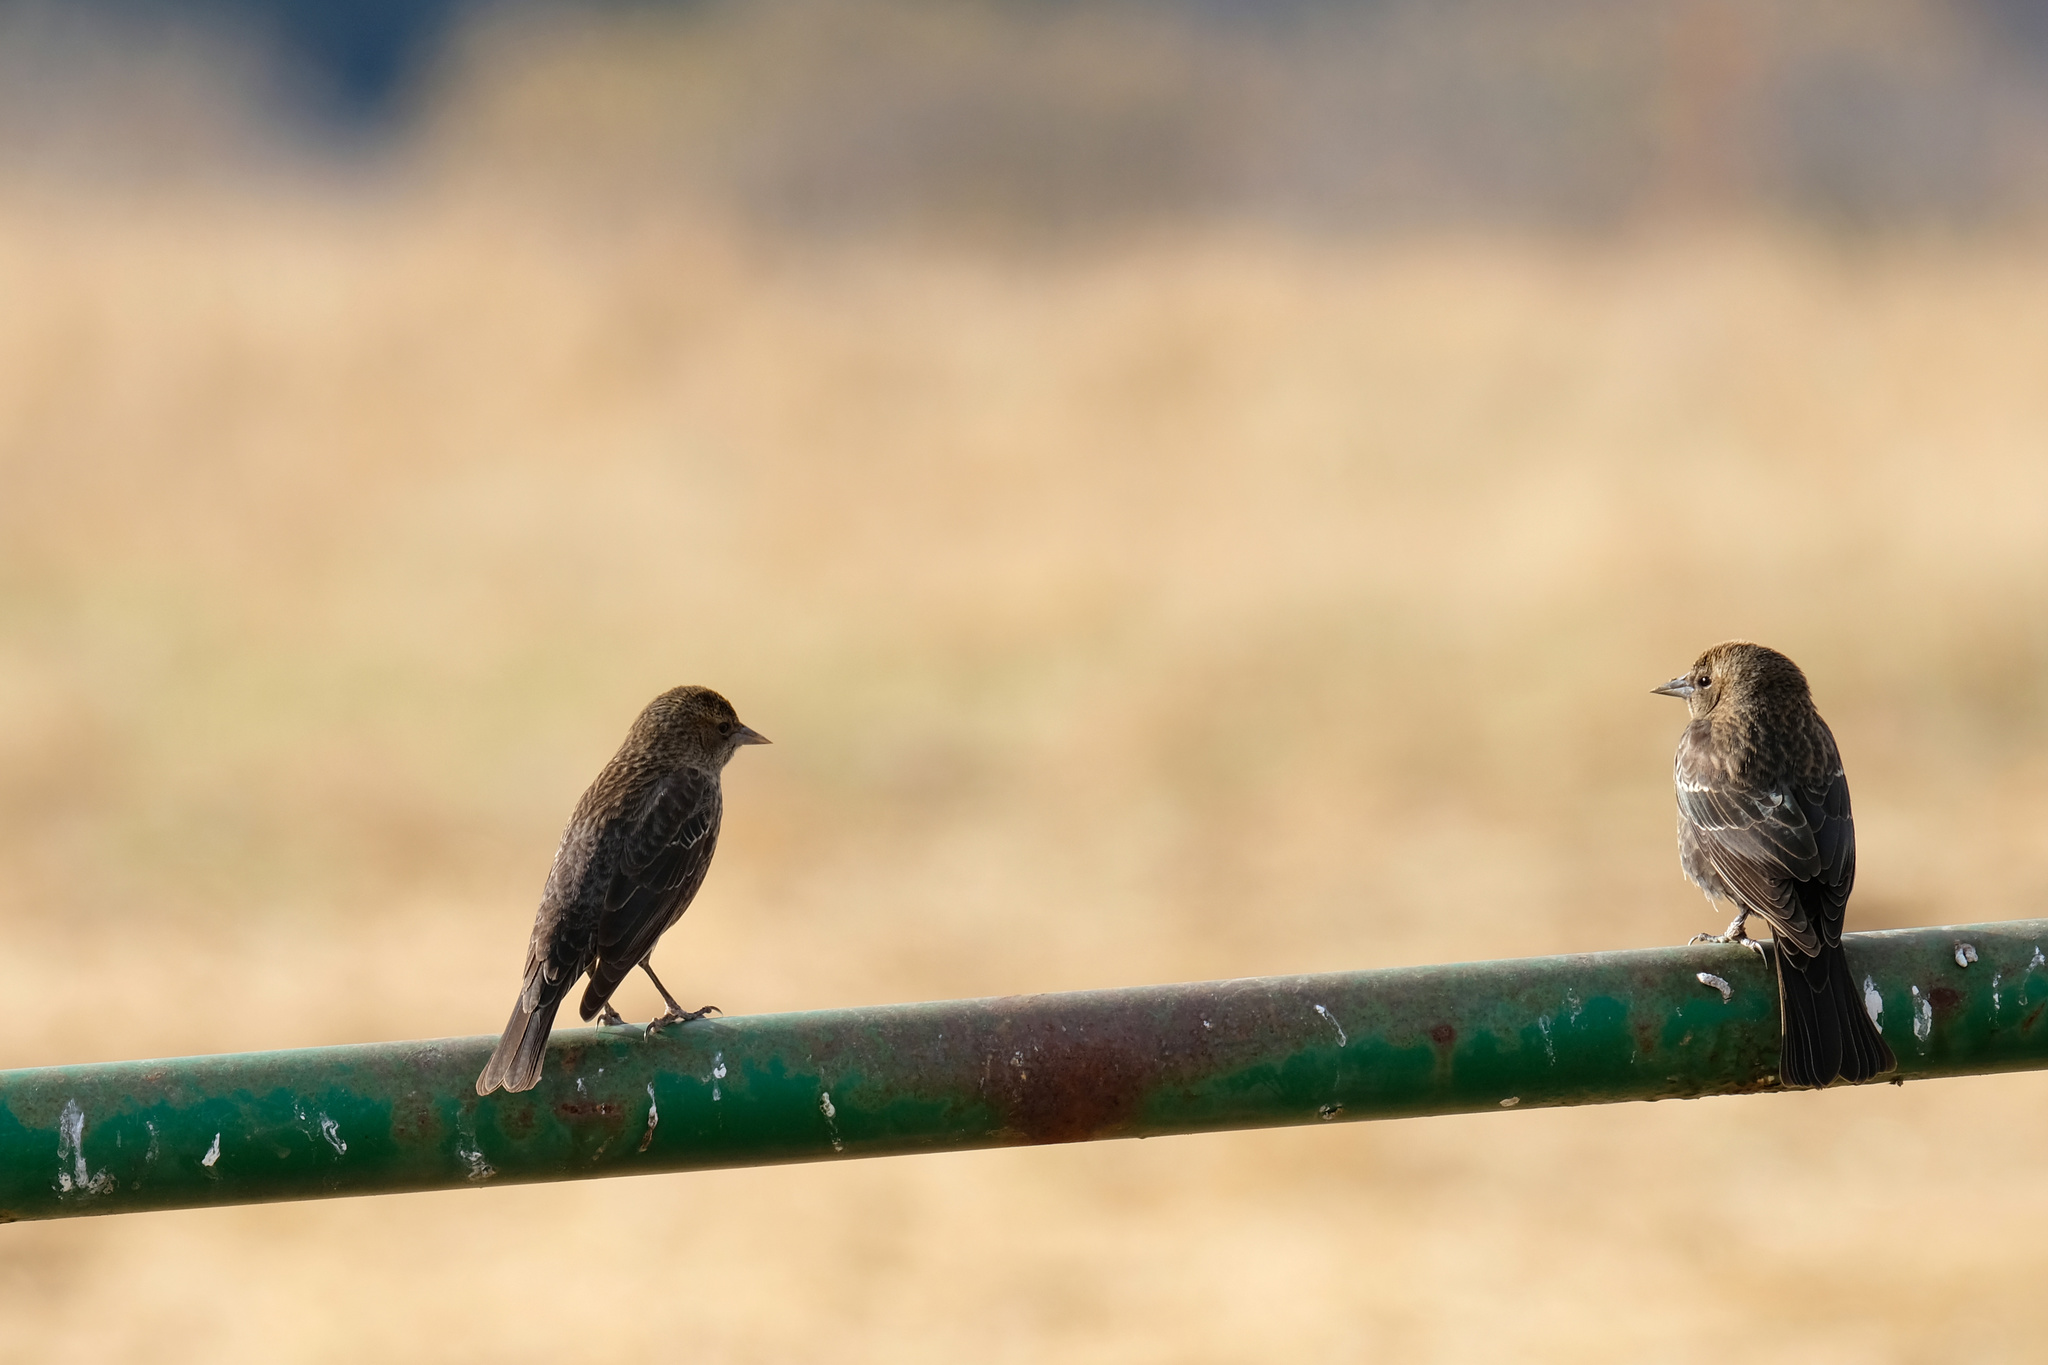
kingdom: Animalia
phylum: Chordata
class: Aves
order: Passeriformes
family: Icteridae
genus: Agelaius
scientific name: Agelaius phoeniceus
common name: Red-winged blackbird
